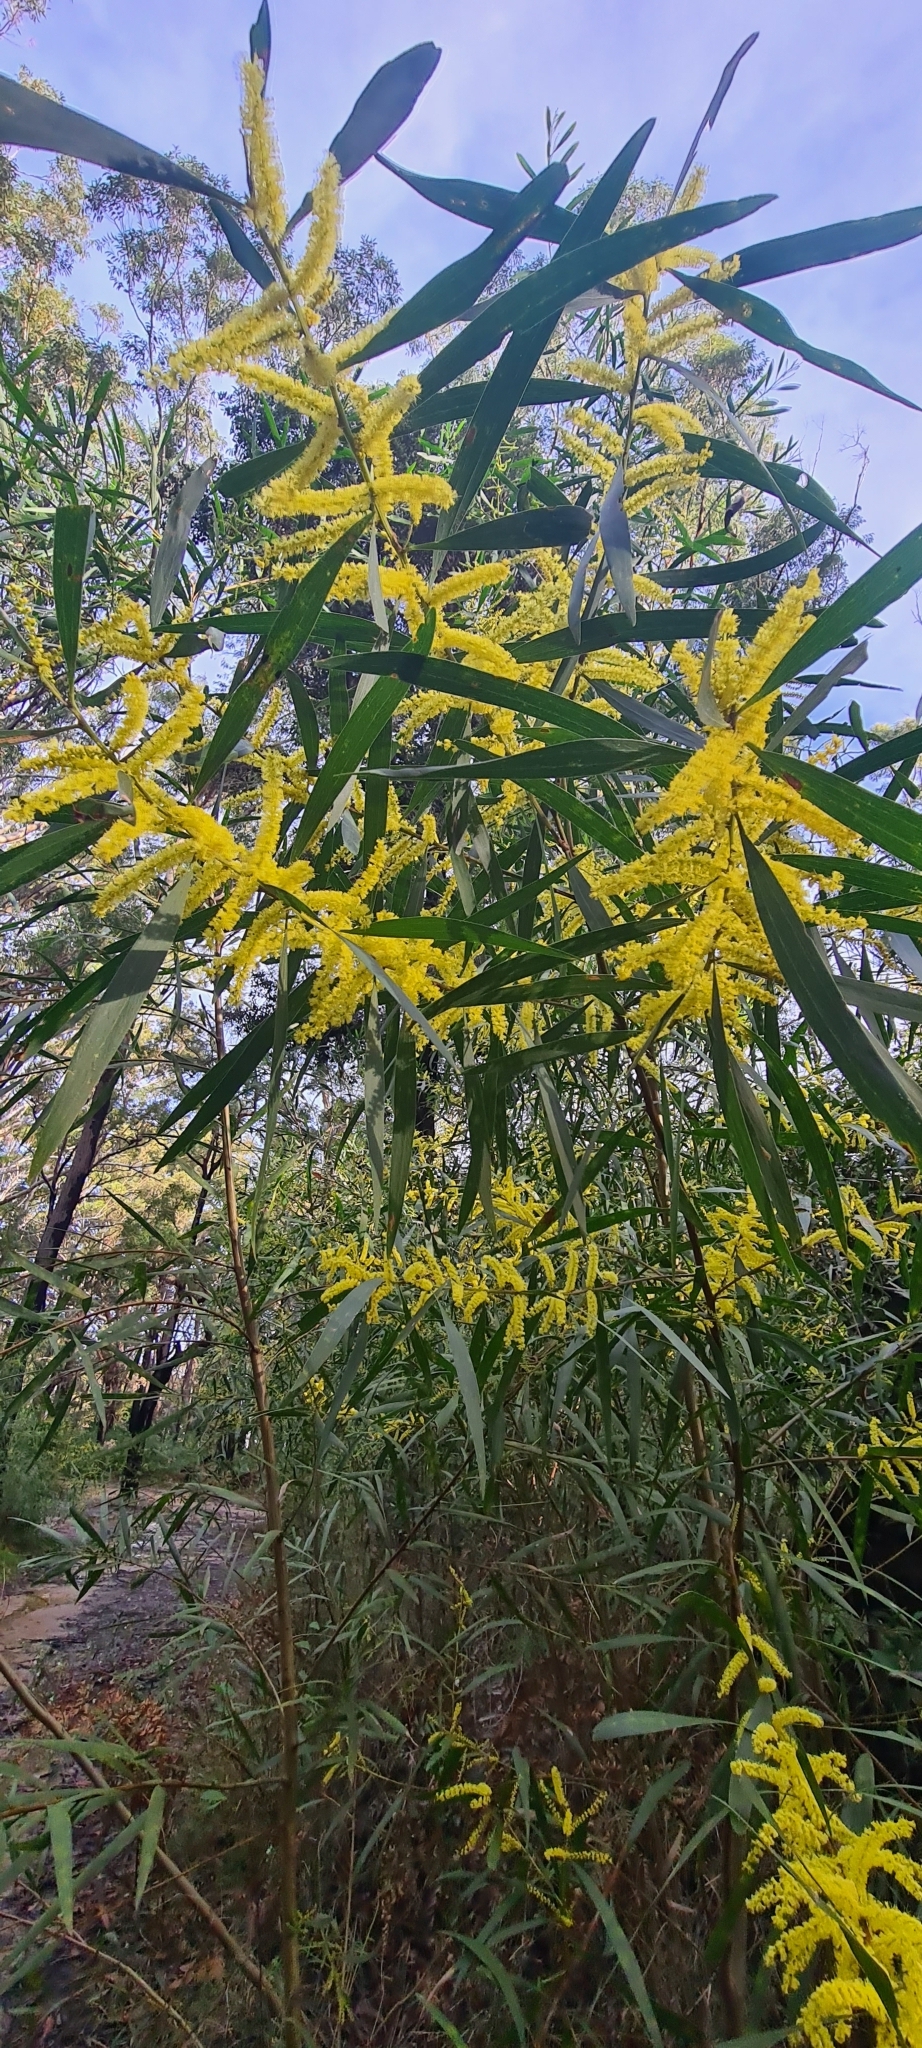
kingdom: Plantae
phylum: Tracheophyta
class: Magnoliopsida
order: Fabales
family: Fabaceae
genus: Acacia
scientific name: Acacia longifolia
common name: Sydney golden wattle
